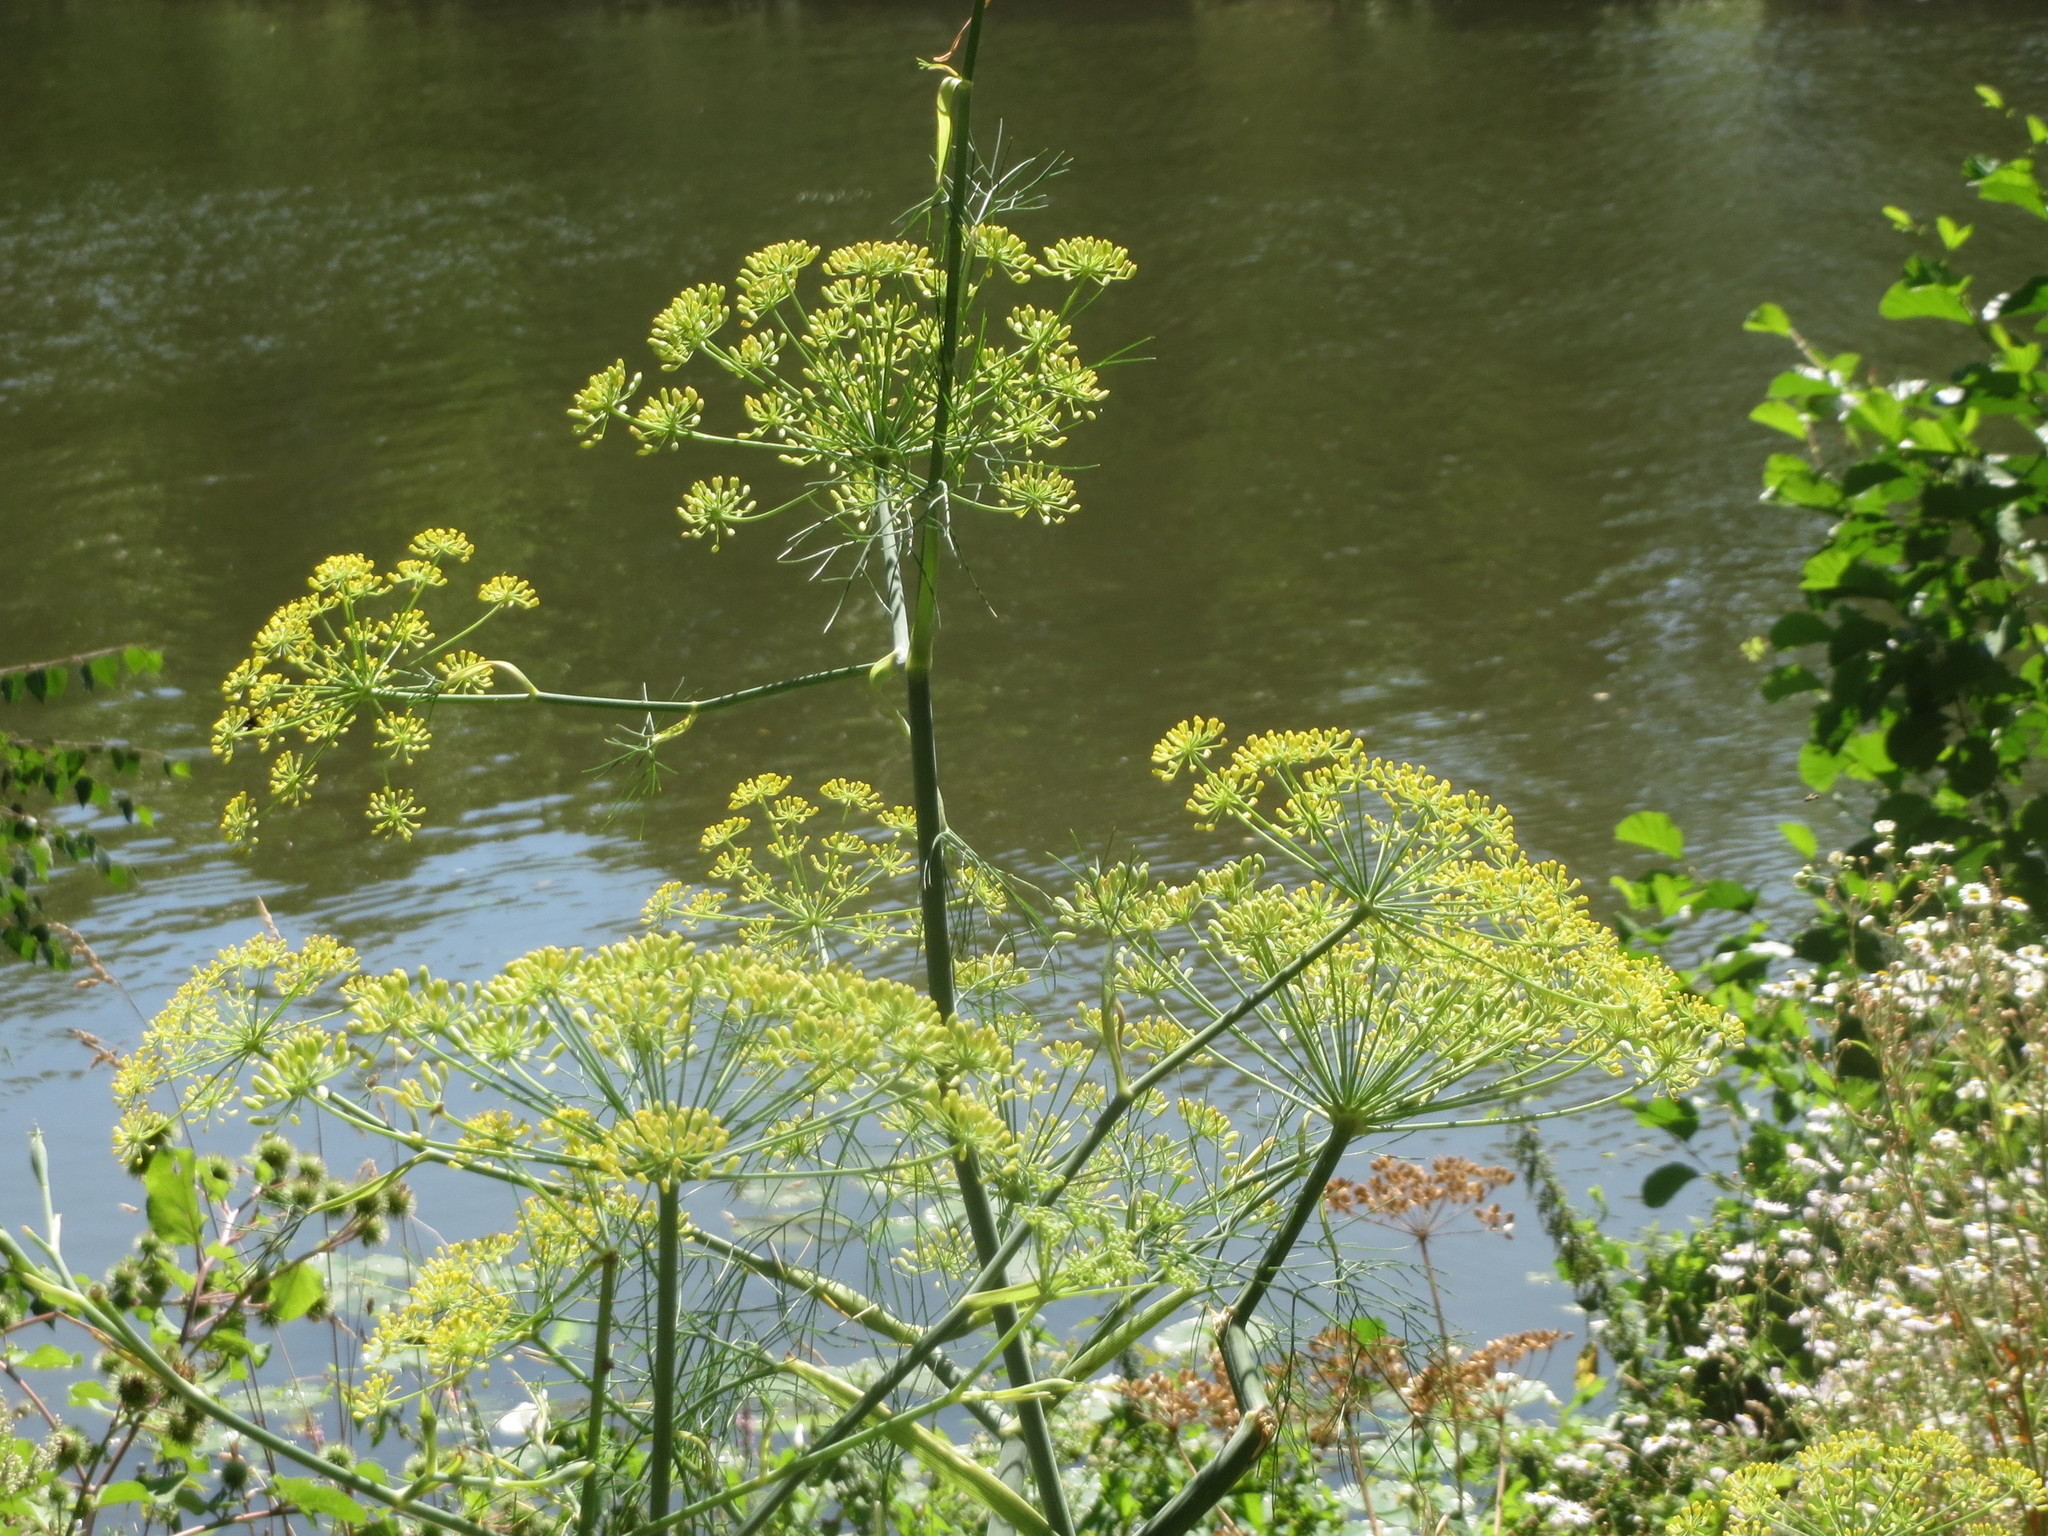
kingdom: Plantae
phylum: Tracheophyta
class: Magnoliopsida
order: Apiales
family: Apiaceae
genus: Anethum
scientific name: Anethum graveolens
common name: Dill
